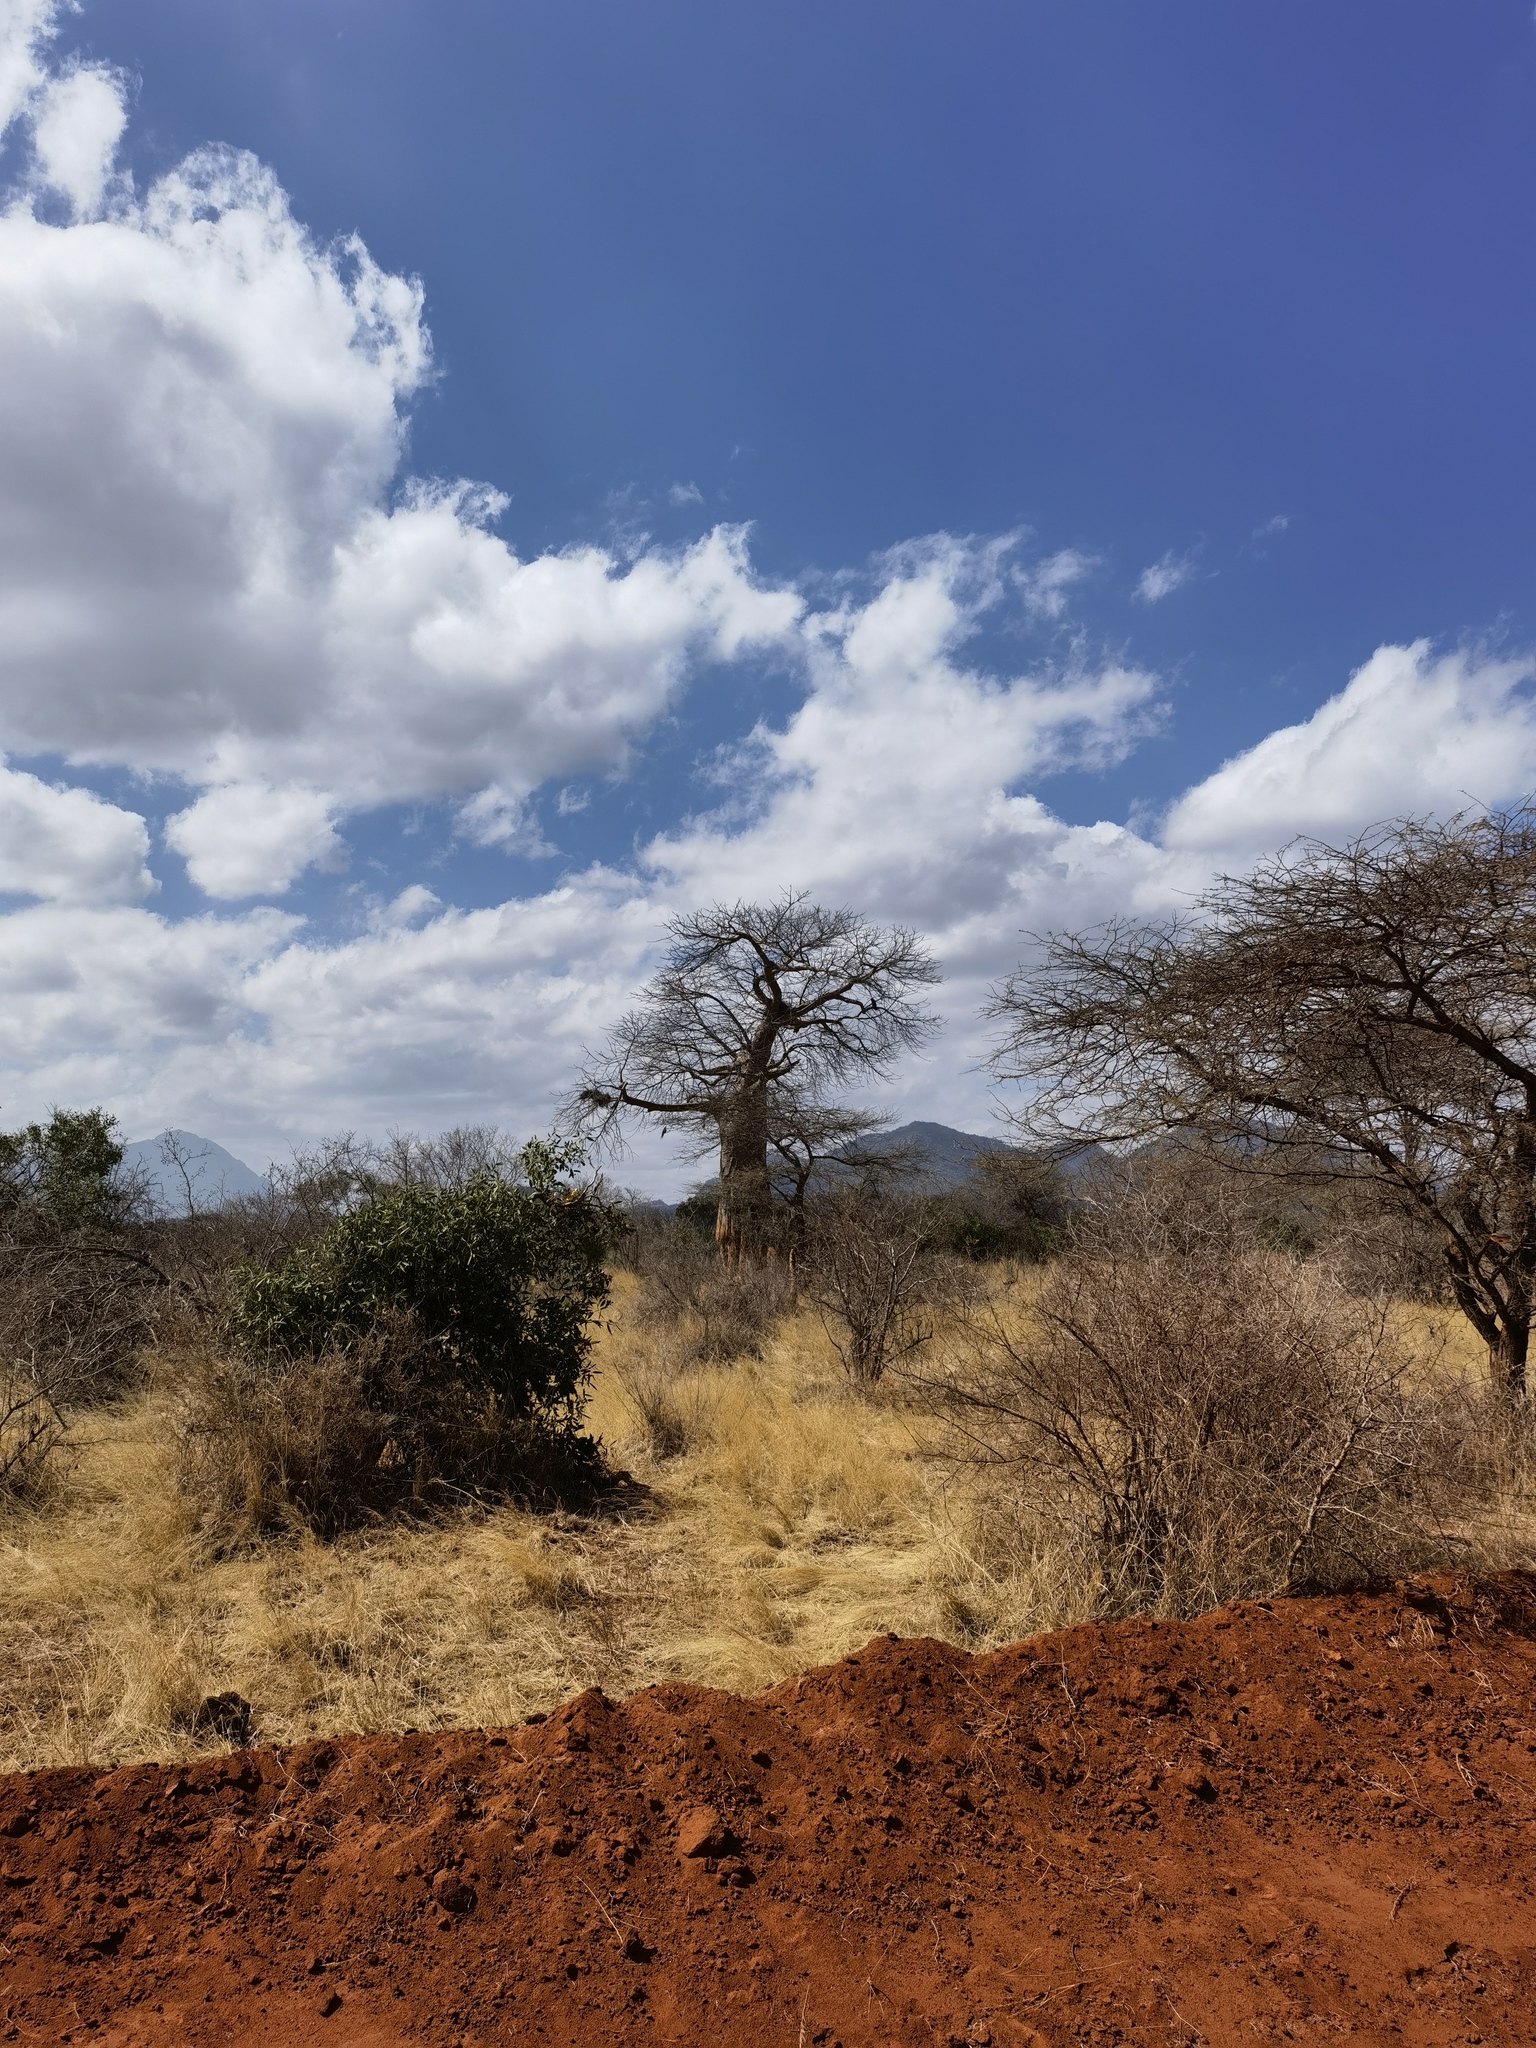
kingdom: Plantae
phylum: Tracheophyta
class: Magnoliopsida
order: Malvales
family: Malvaceae
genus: Adansonia
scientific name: Adansonia digitata
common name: Dead-rat-tree
